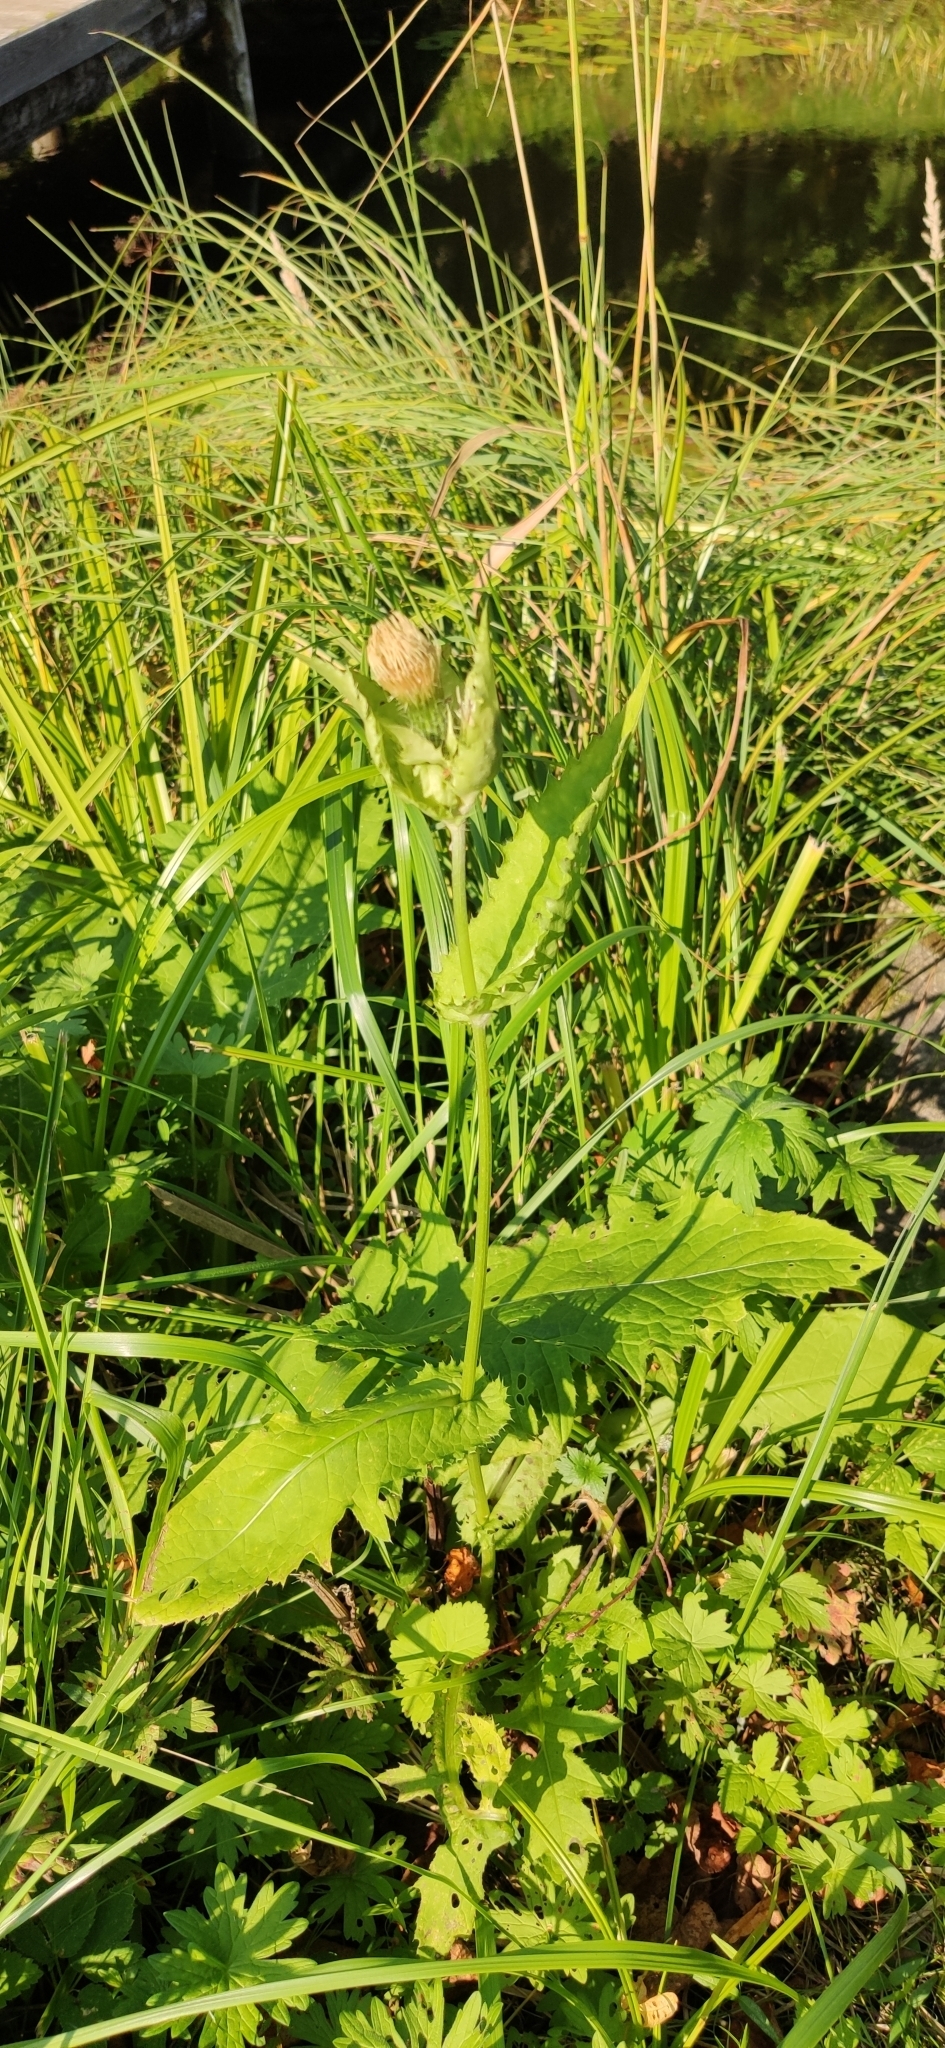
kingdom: Plantae
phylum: Tracheophyta
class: Magnoliopsida
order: Asterales
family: Asteraceae
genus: Cirsium
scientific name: Cirsium oleraceum
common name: Cabbage thistle
